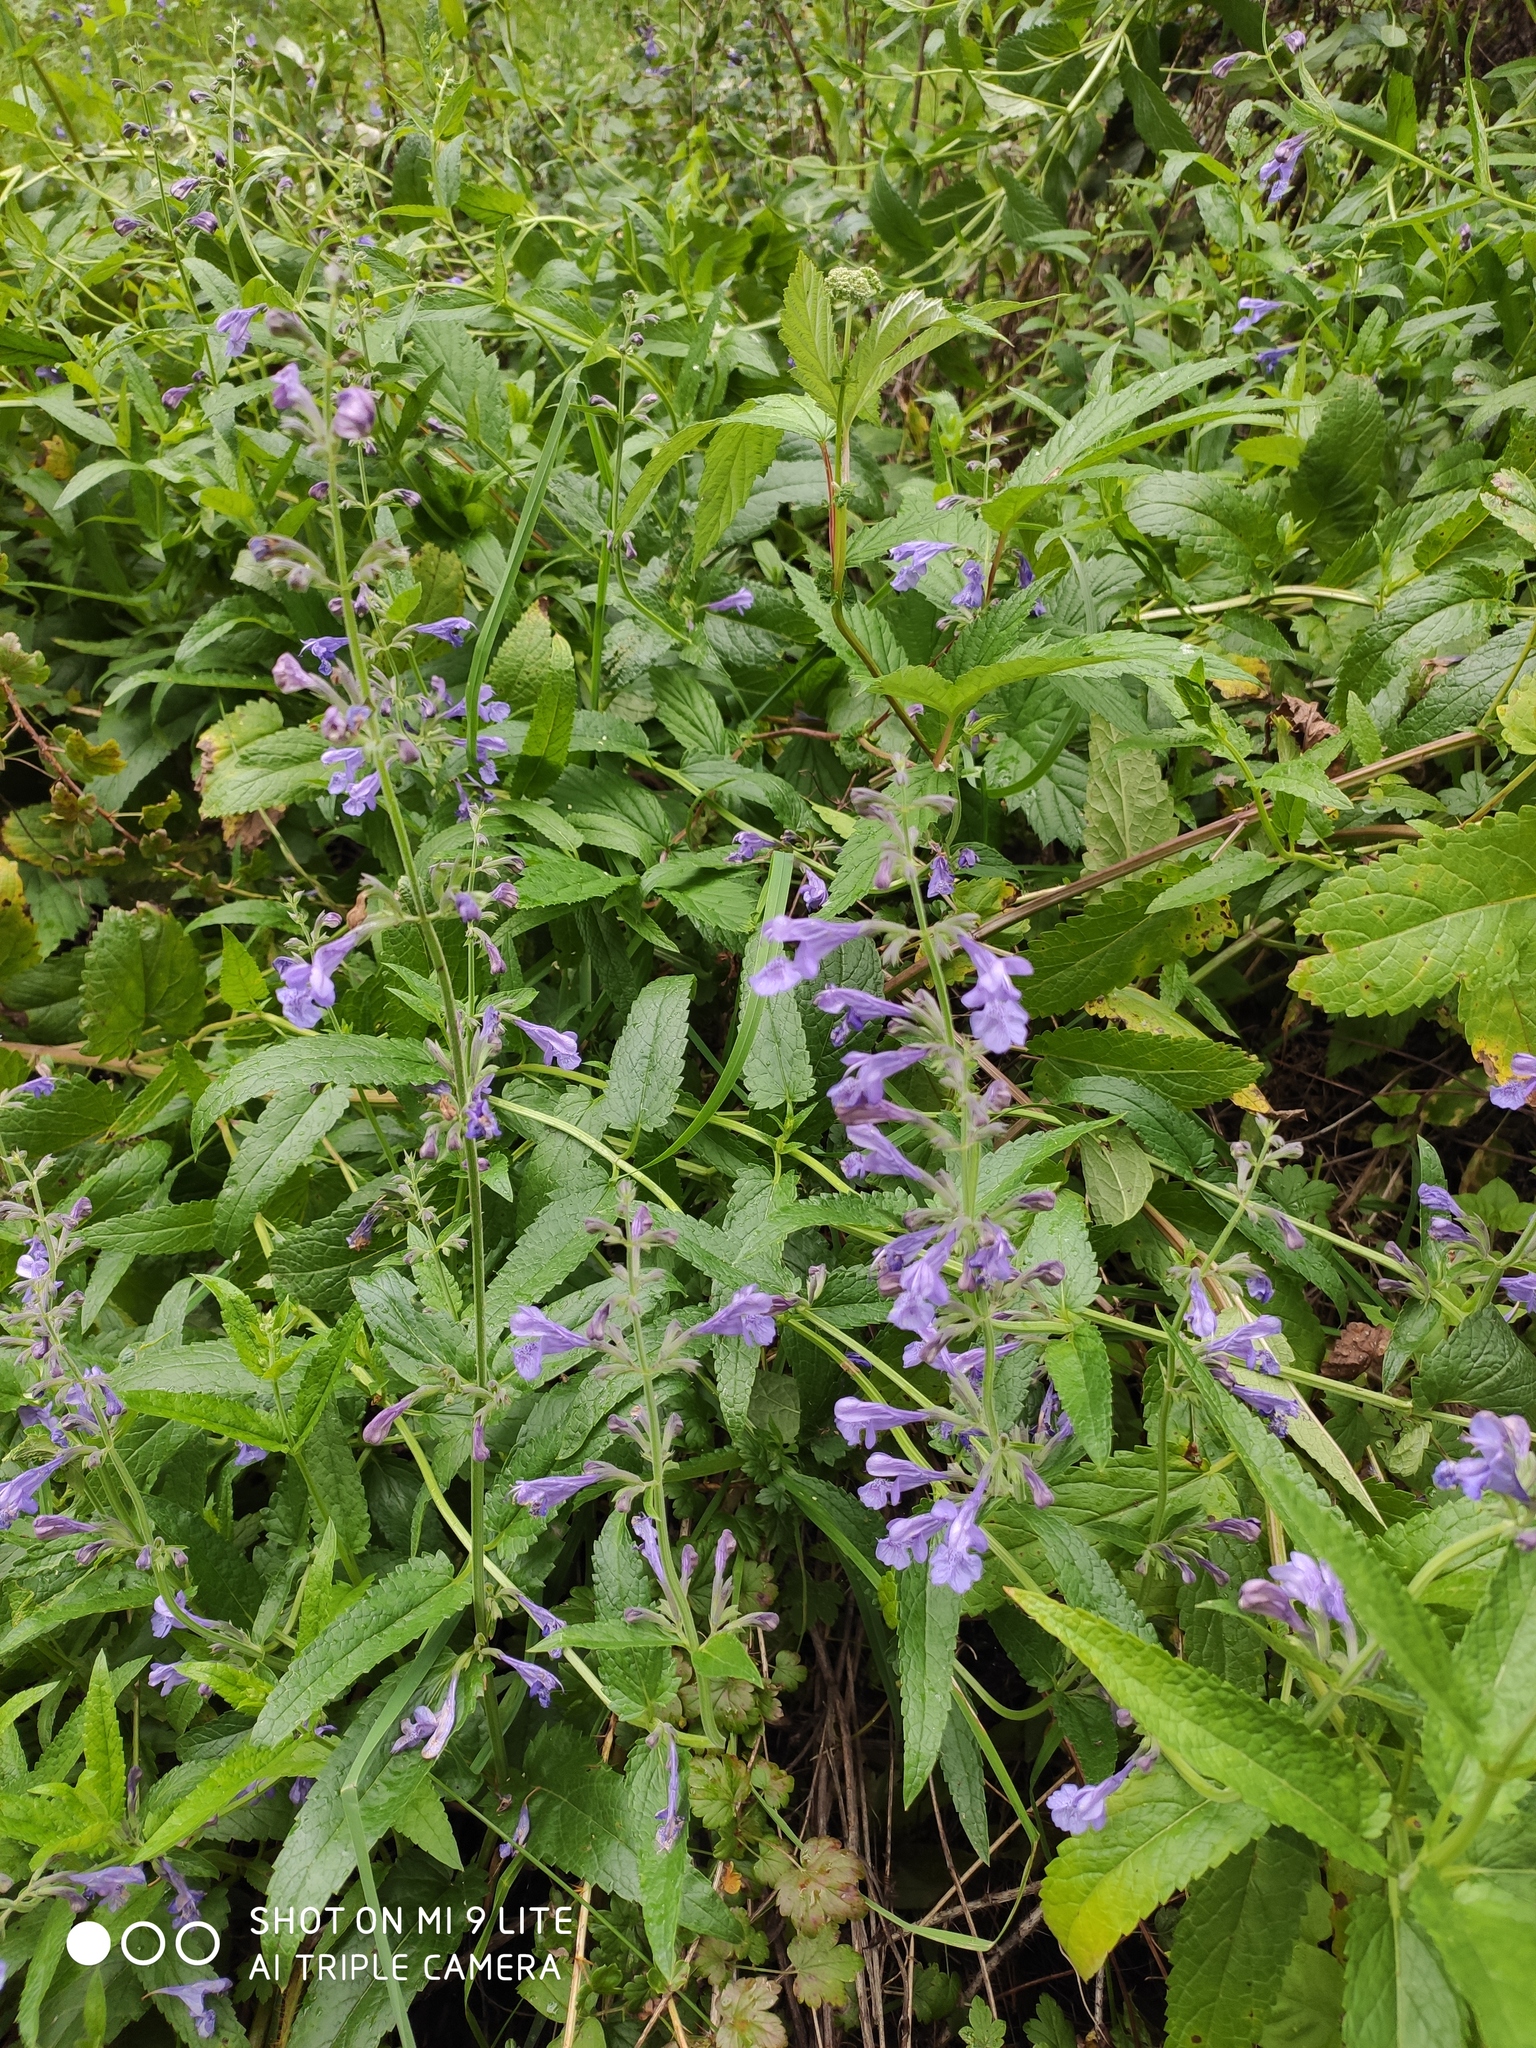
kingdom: Plantae
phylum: Tracheophyta
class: Magnoliopsida
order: Lamiales
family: Lamiaceae
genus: Nepeta
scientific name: Nepeta sibirica
